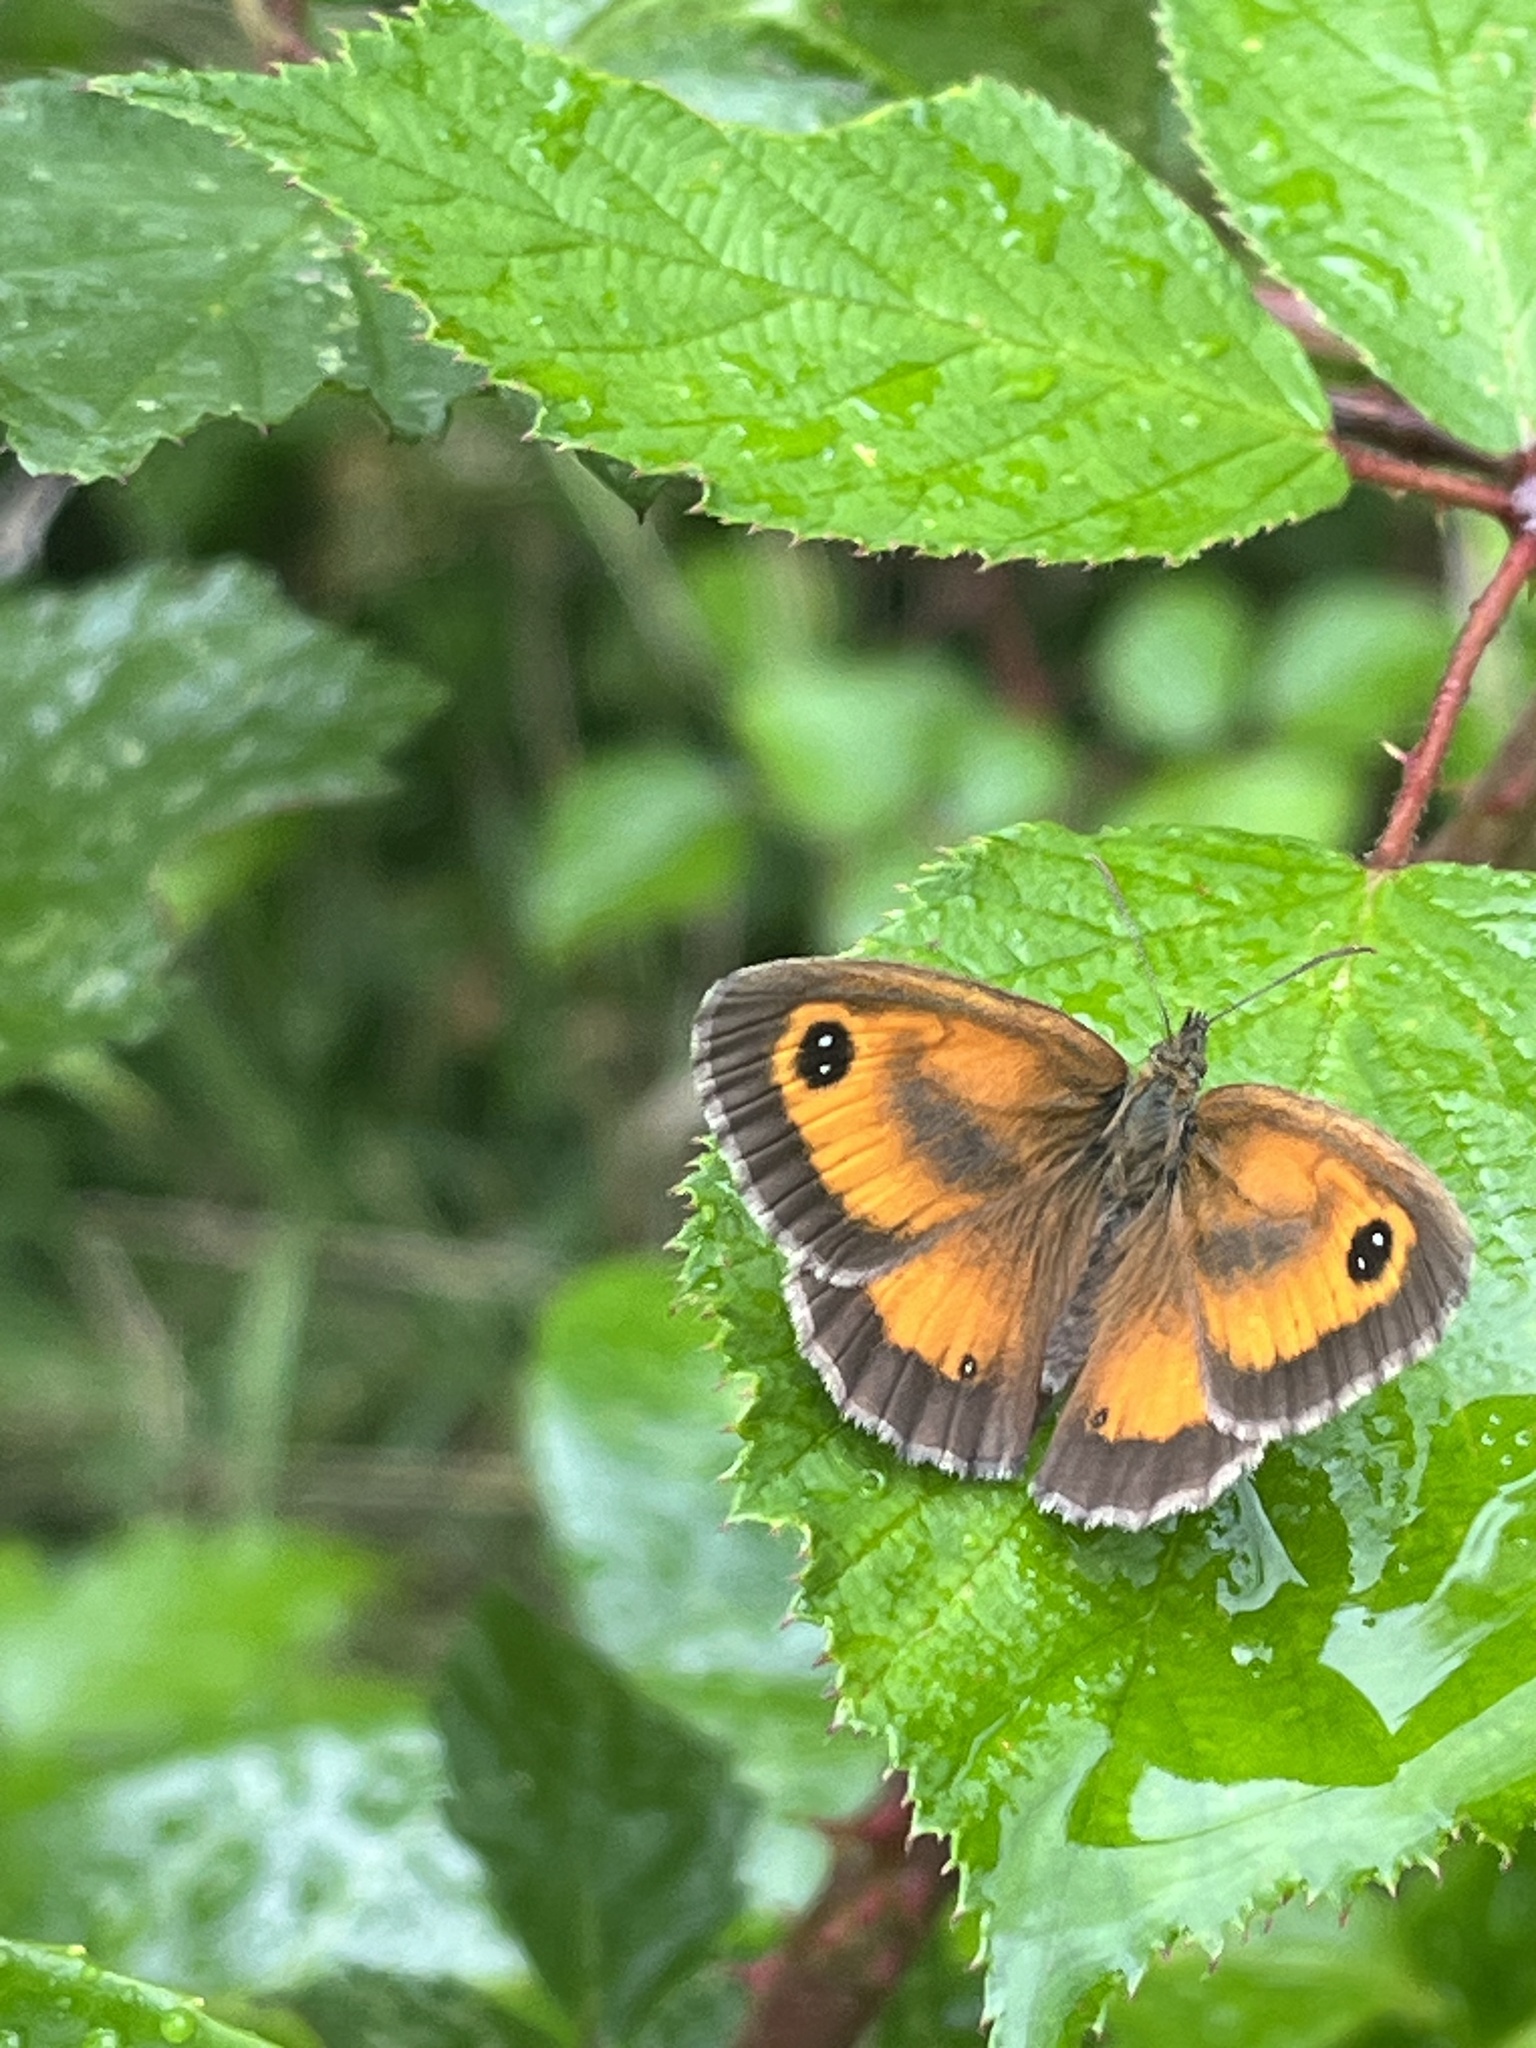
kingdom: Animalia
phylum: Arthropoda
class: Insecta
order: Lepidoptera
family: Nymphalidae
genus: Pyronia
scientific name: Pyronia tithonus
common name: Gatekeeper
